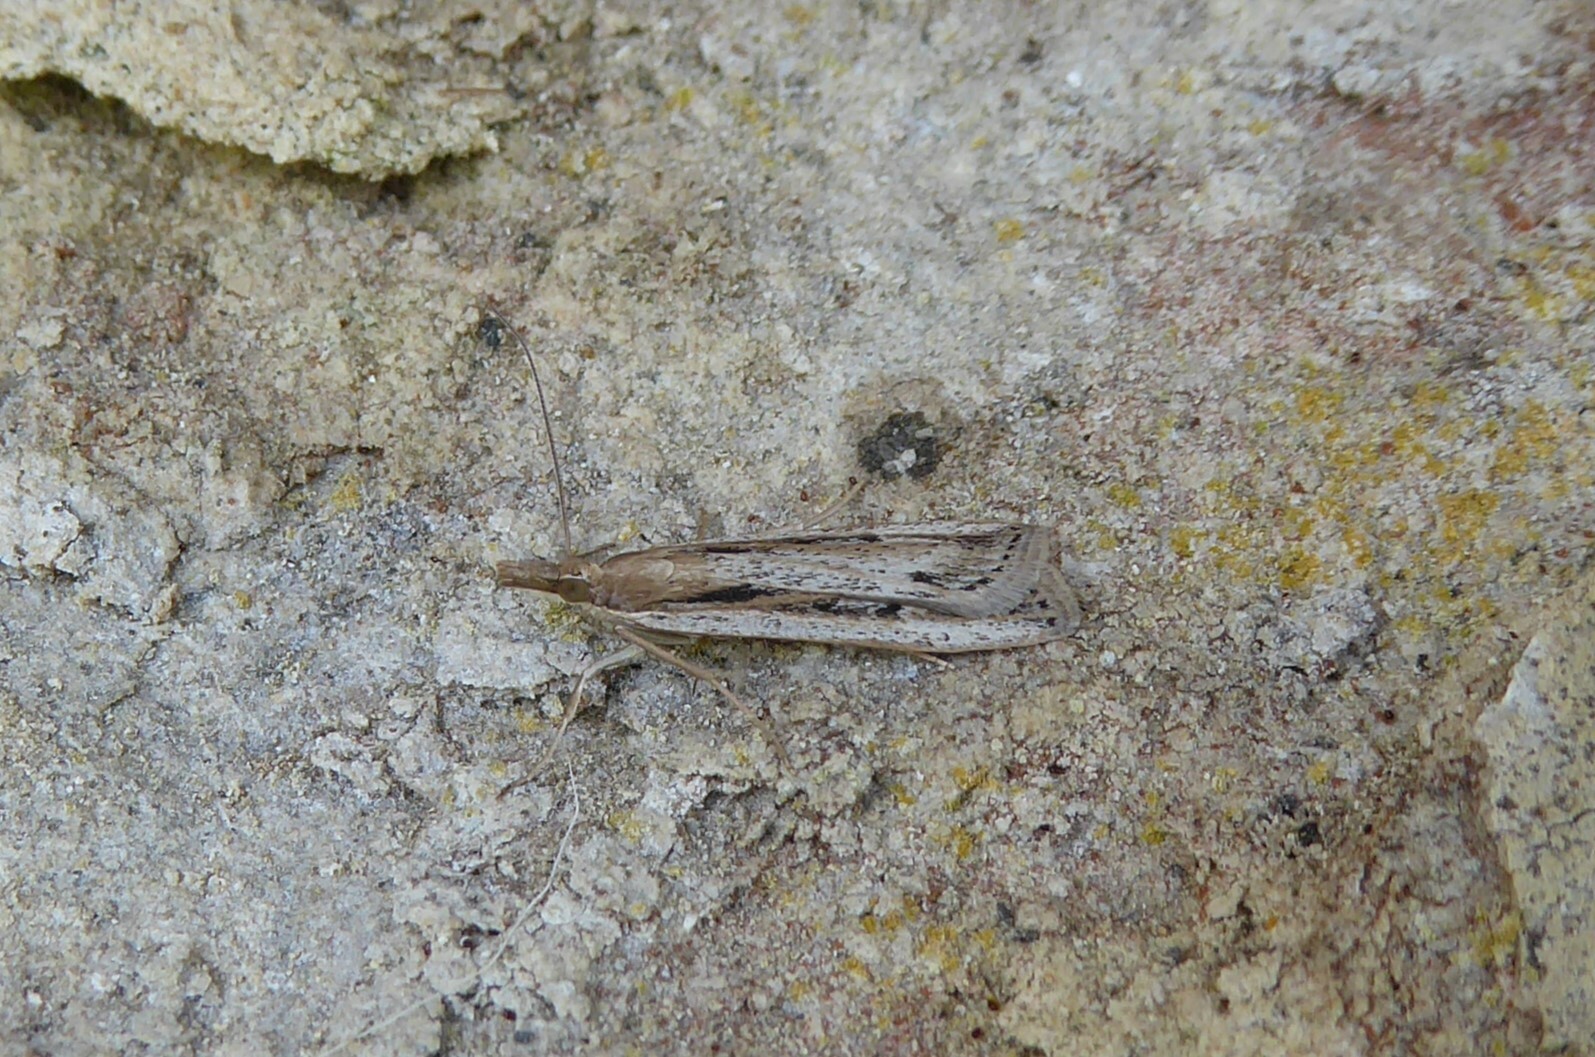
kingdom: Animalia
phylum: Arthropoda
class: Insecta
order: Lepidoptera
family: Crambidae
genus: Eudonia
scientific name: Eudonia sabulosella
